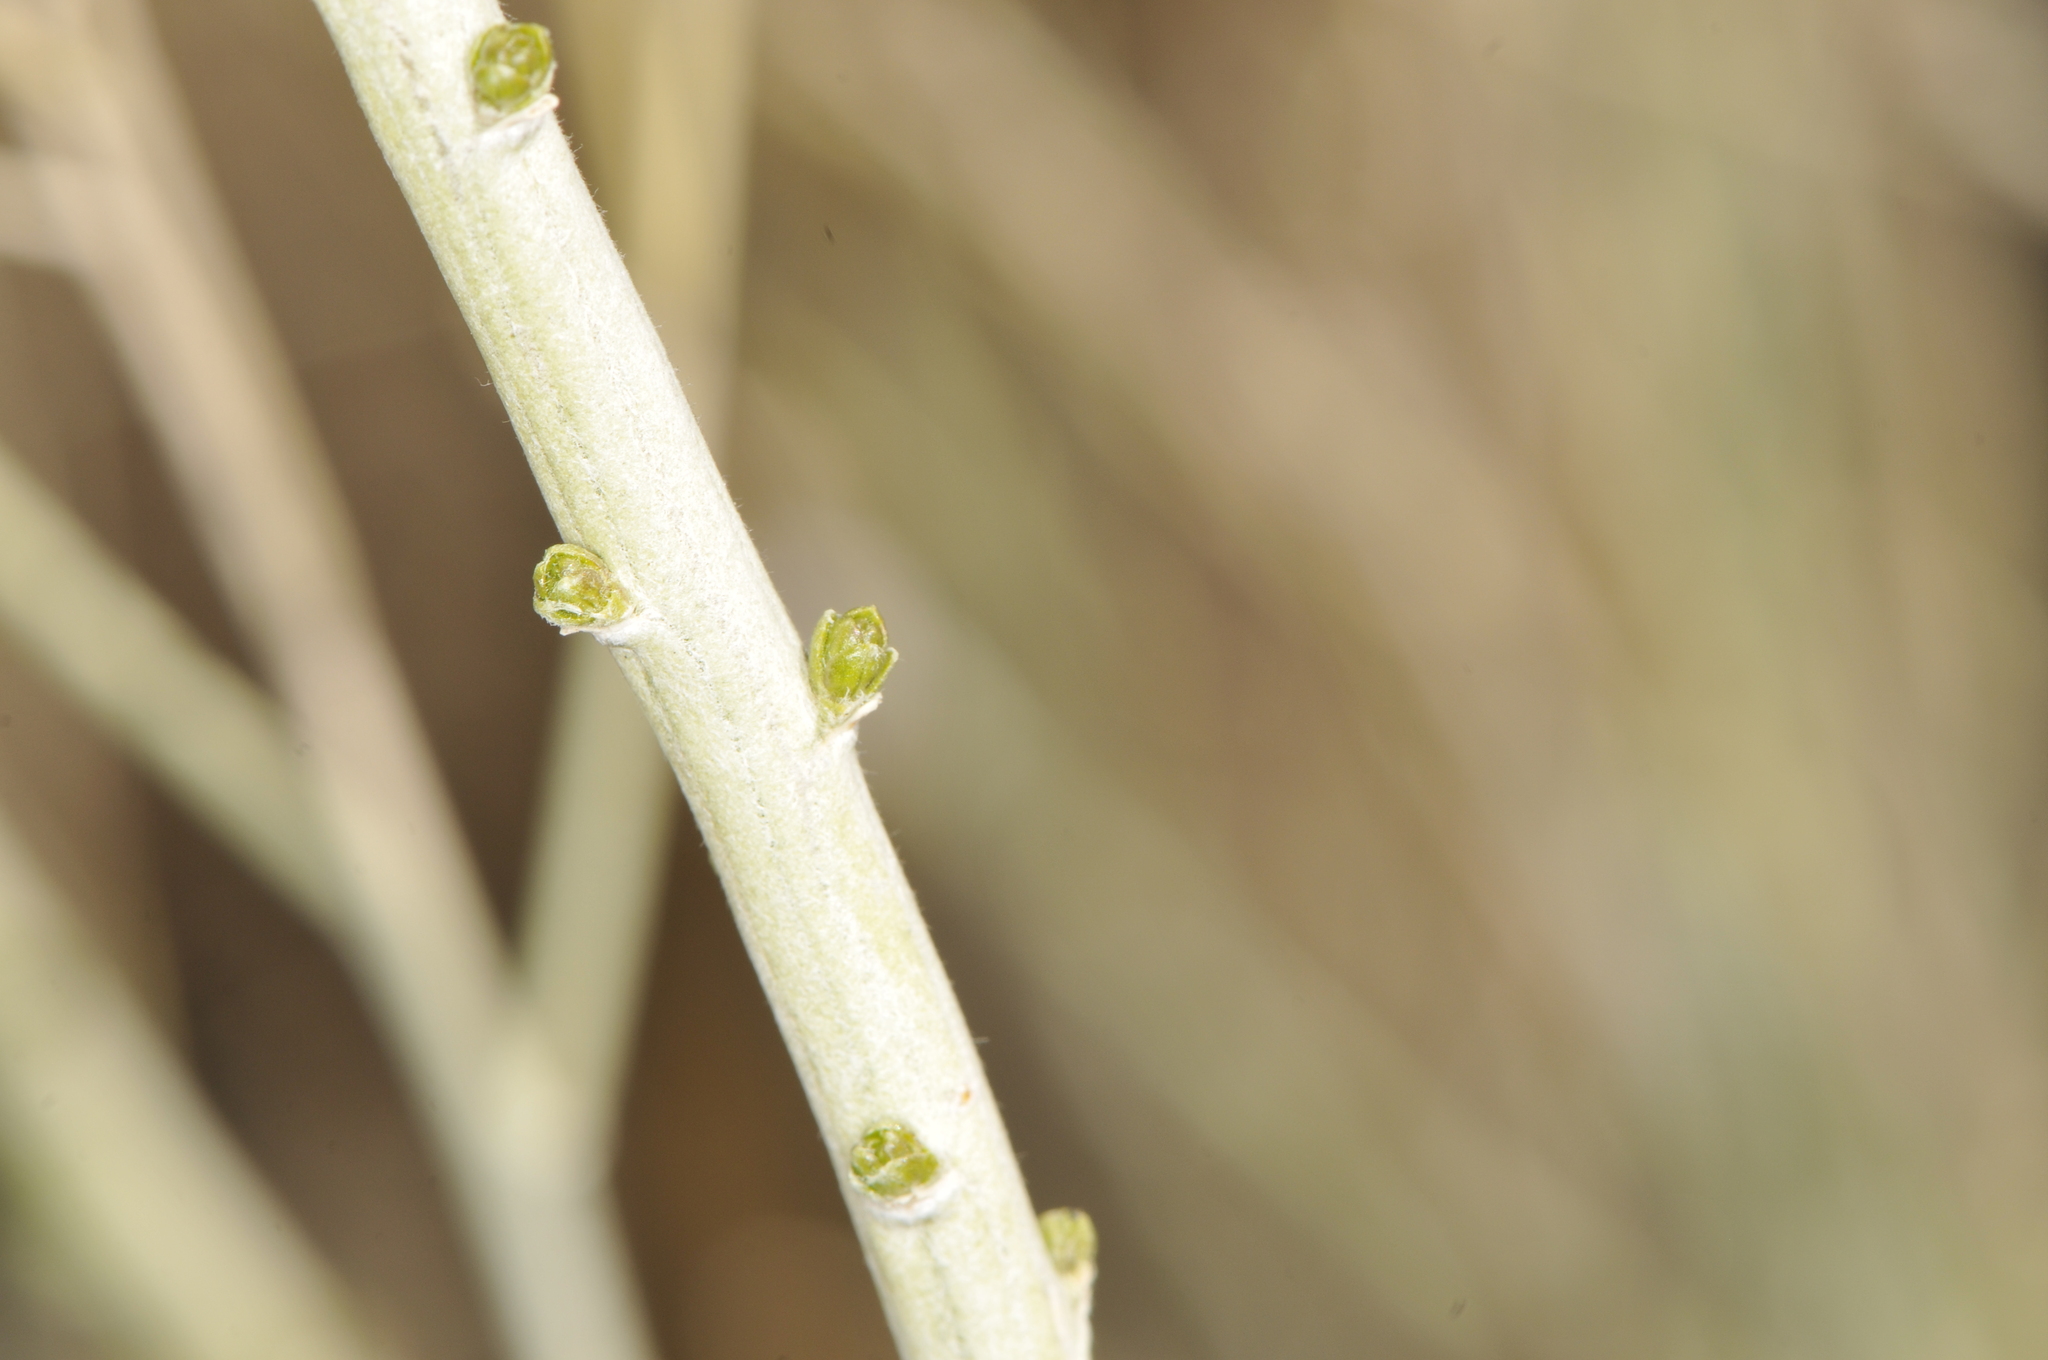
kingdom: Plantae
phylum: Tracheophyta
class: Magnoliopsida
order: Asterales
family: Asteraceae
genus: Ericameria
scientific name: Ericameria nauseosa
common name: Rubber rabbitbrush
